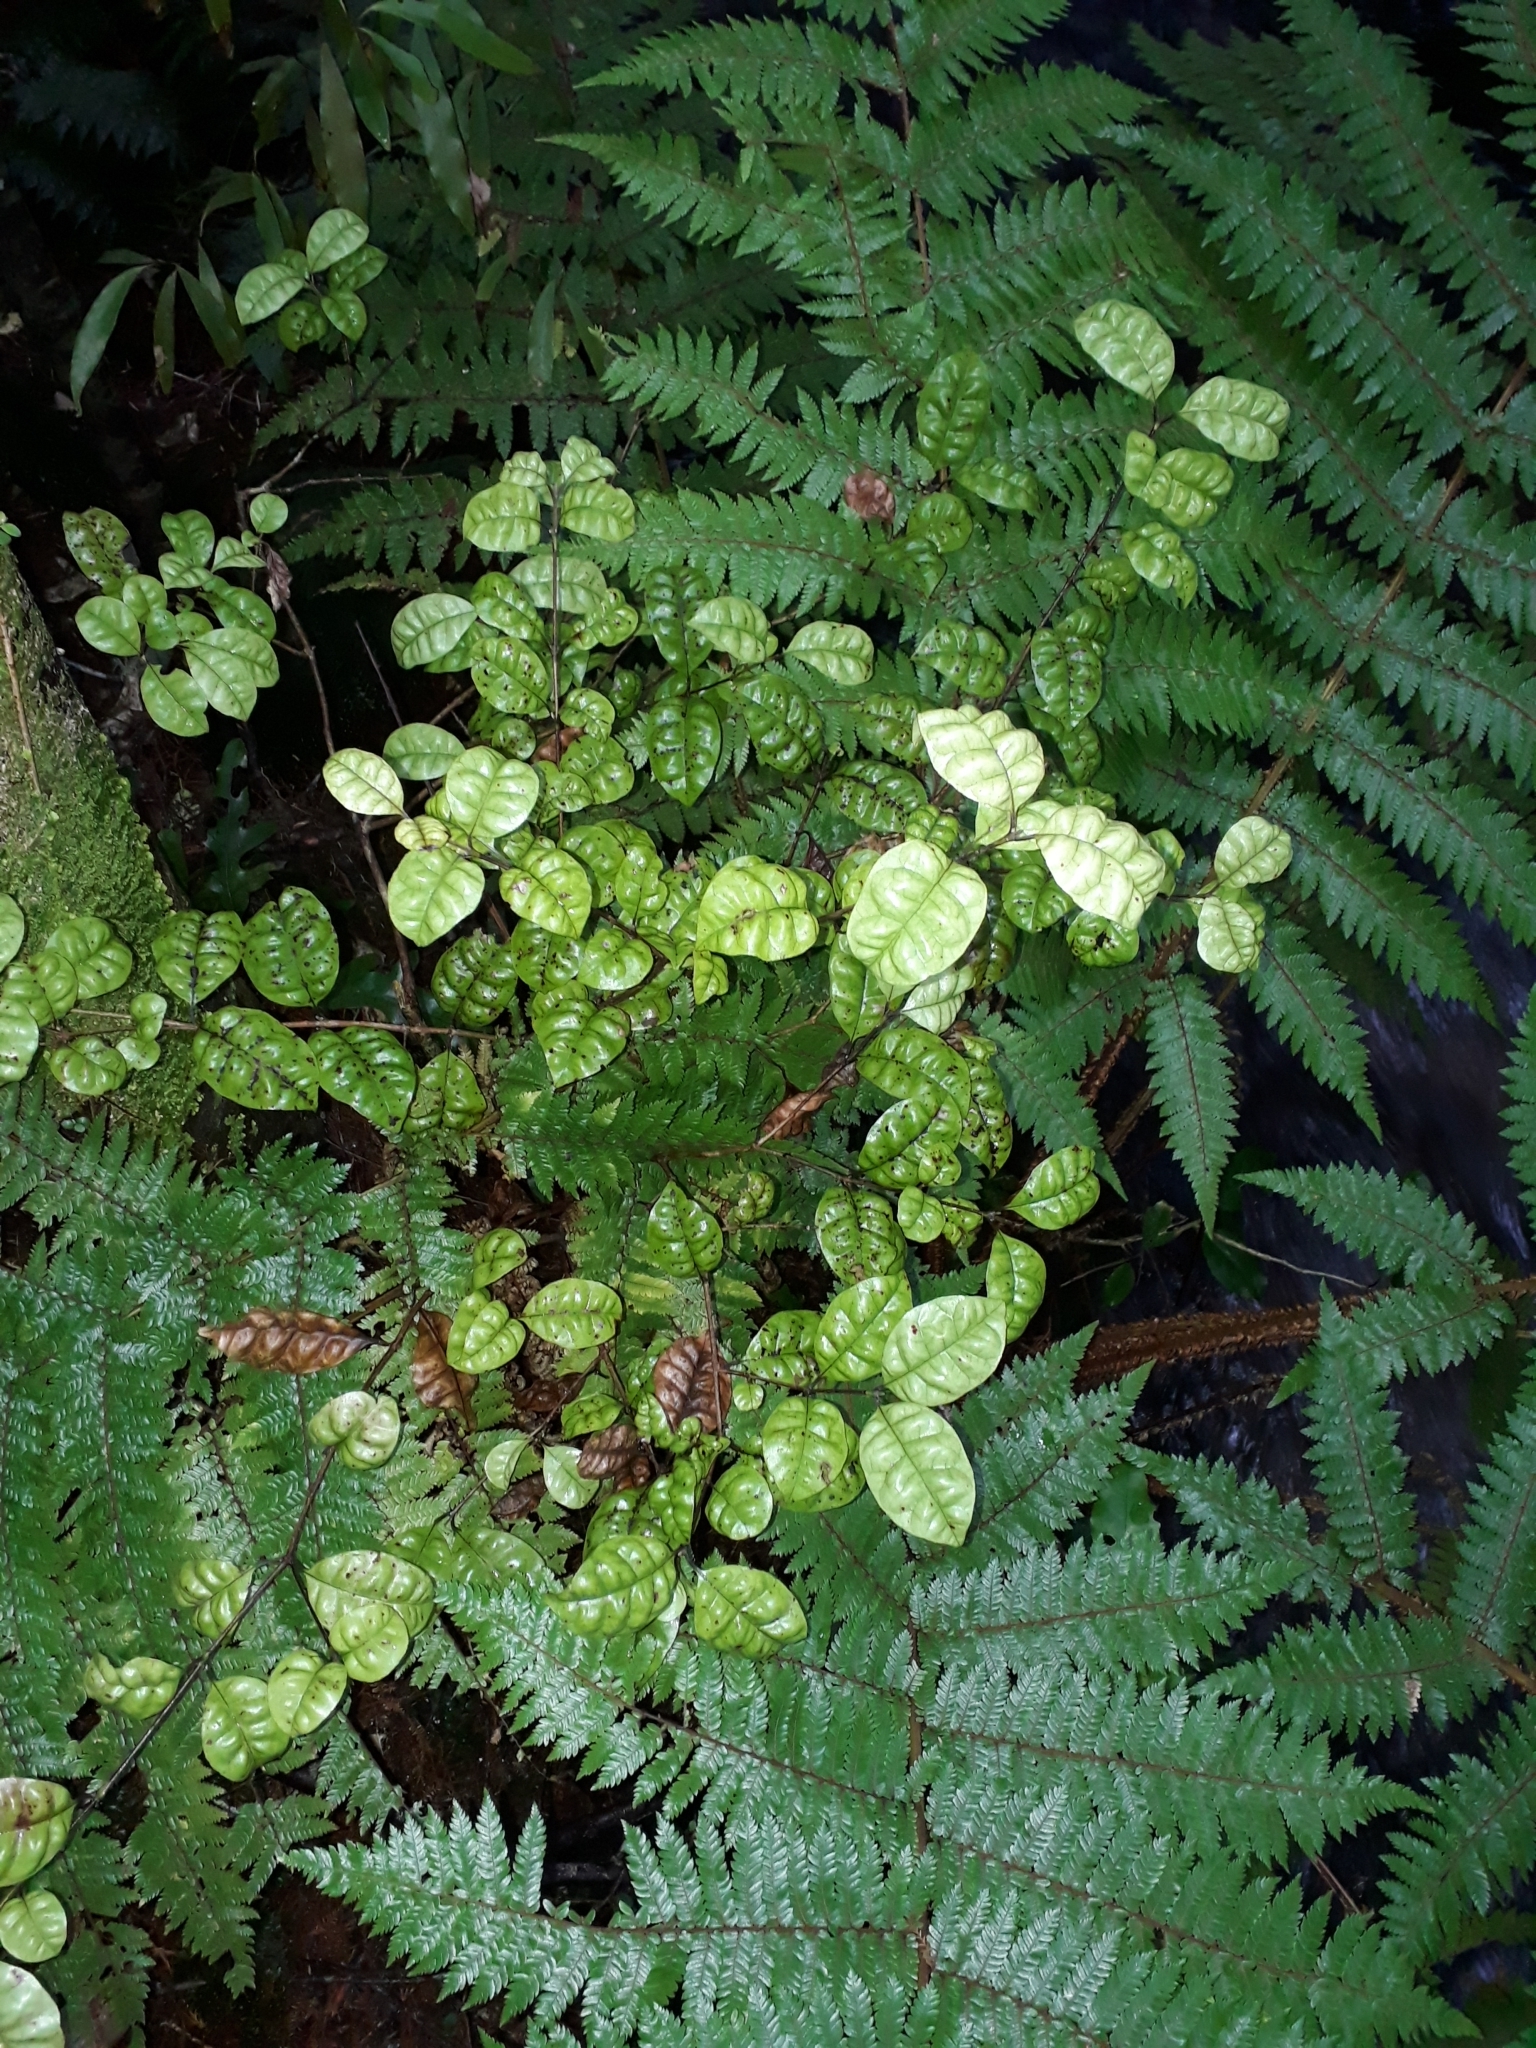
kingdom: Plantae
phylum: Tracheophyta
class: Magnoliopsida
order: Myrtales
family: Myrtaceae
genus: Lophomyrtus
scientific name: Lophomyrtus bullata
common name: Rama rama
